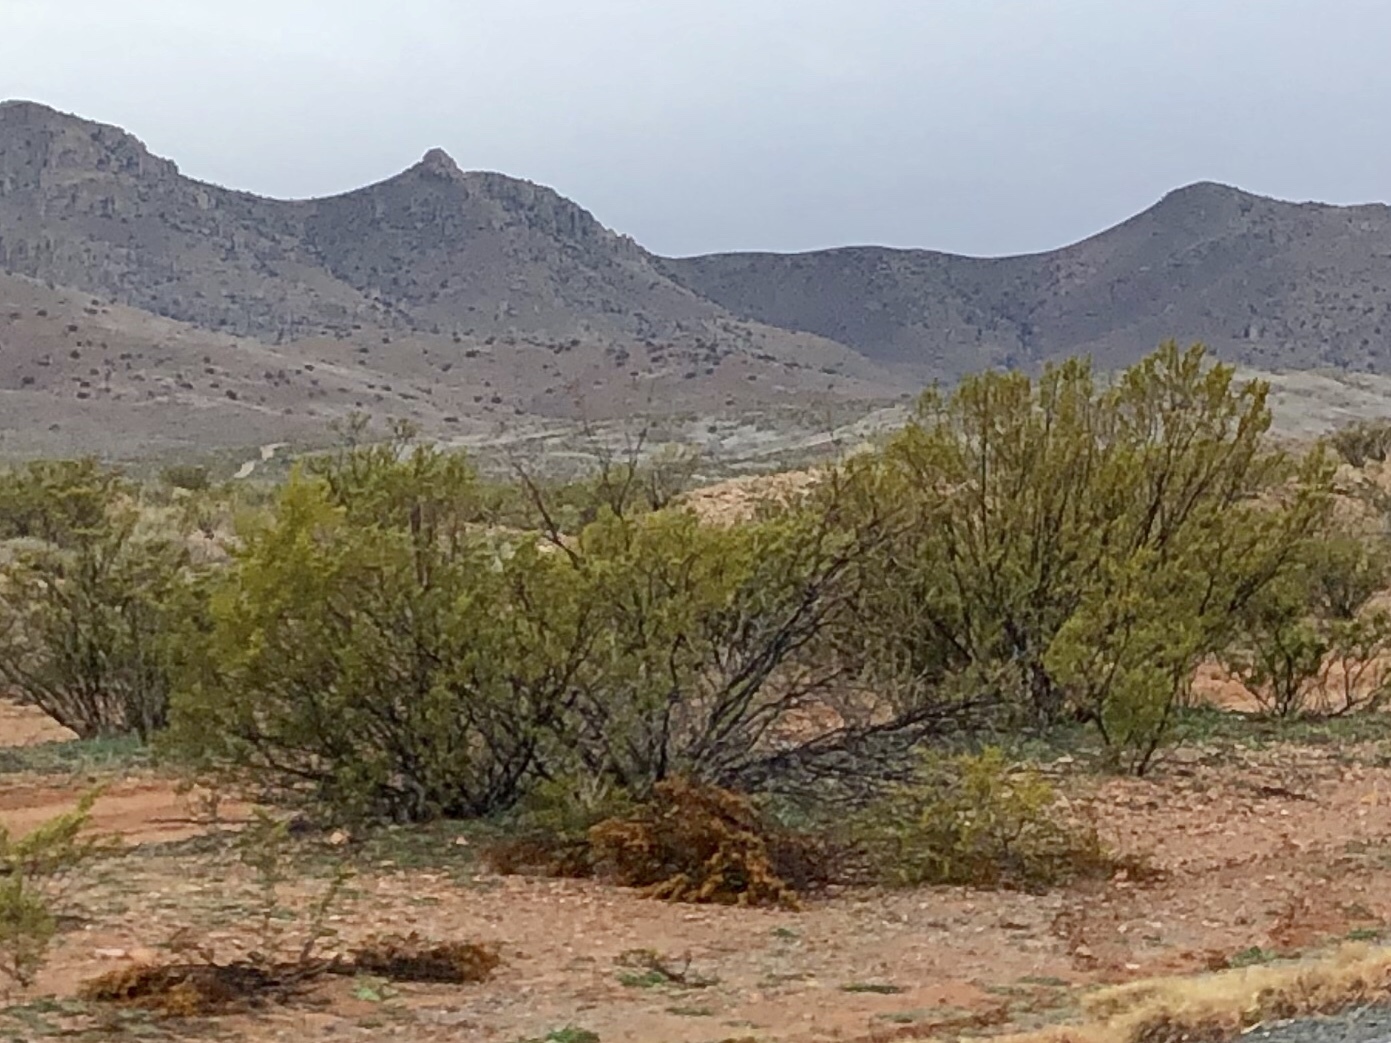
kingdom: Plantae
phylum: Tracheophyta
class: Magnoliopsida
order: Zygophyllales
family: Zygophyllaceae
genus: Larrea
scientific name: Larrea tridentata
